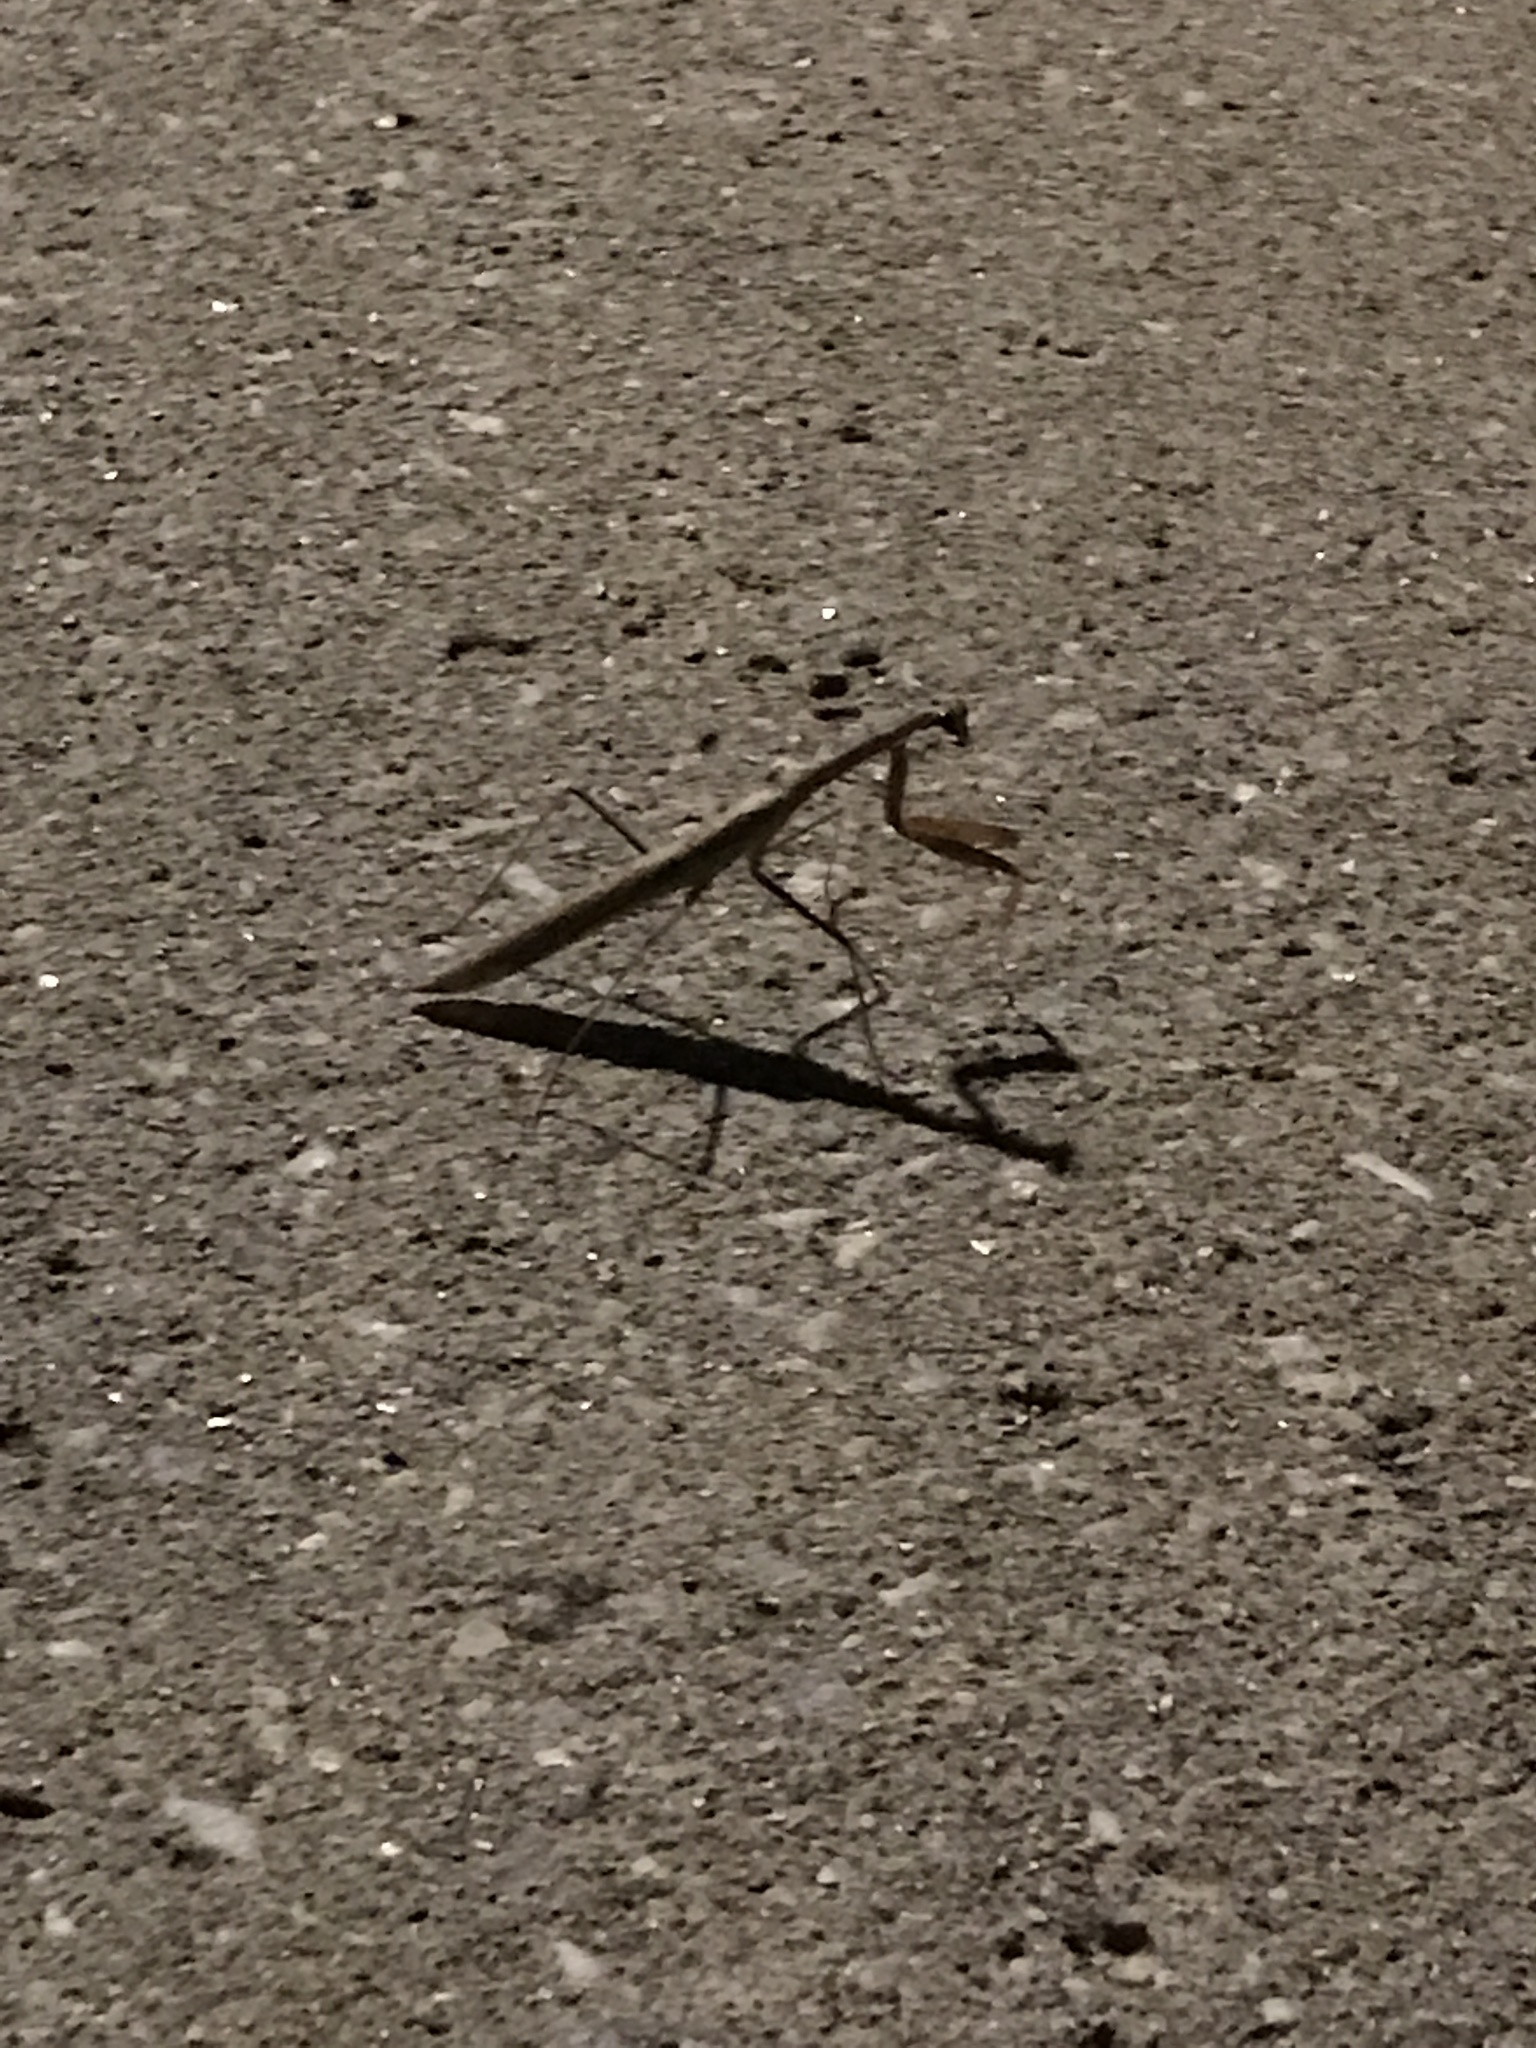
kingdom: Animalia
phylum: Arthropoda
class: Insecta
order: Mantodea
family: Mantidae
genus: Tenodera
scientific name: Tenodera sinensis
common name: Chinese mantis
